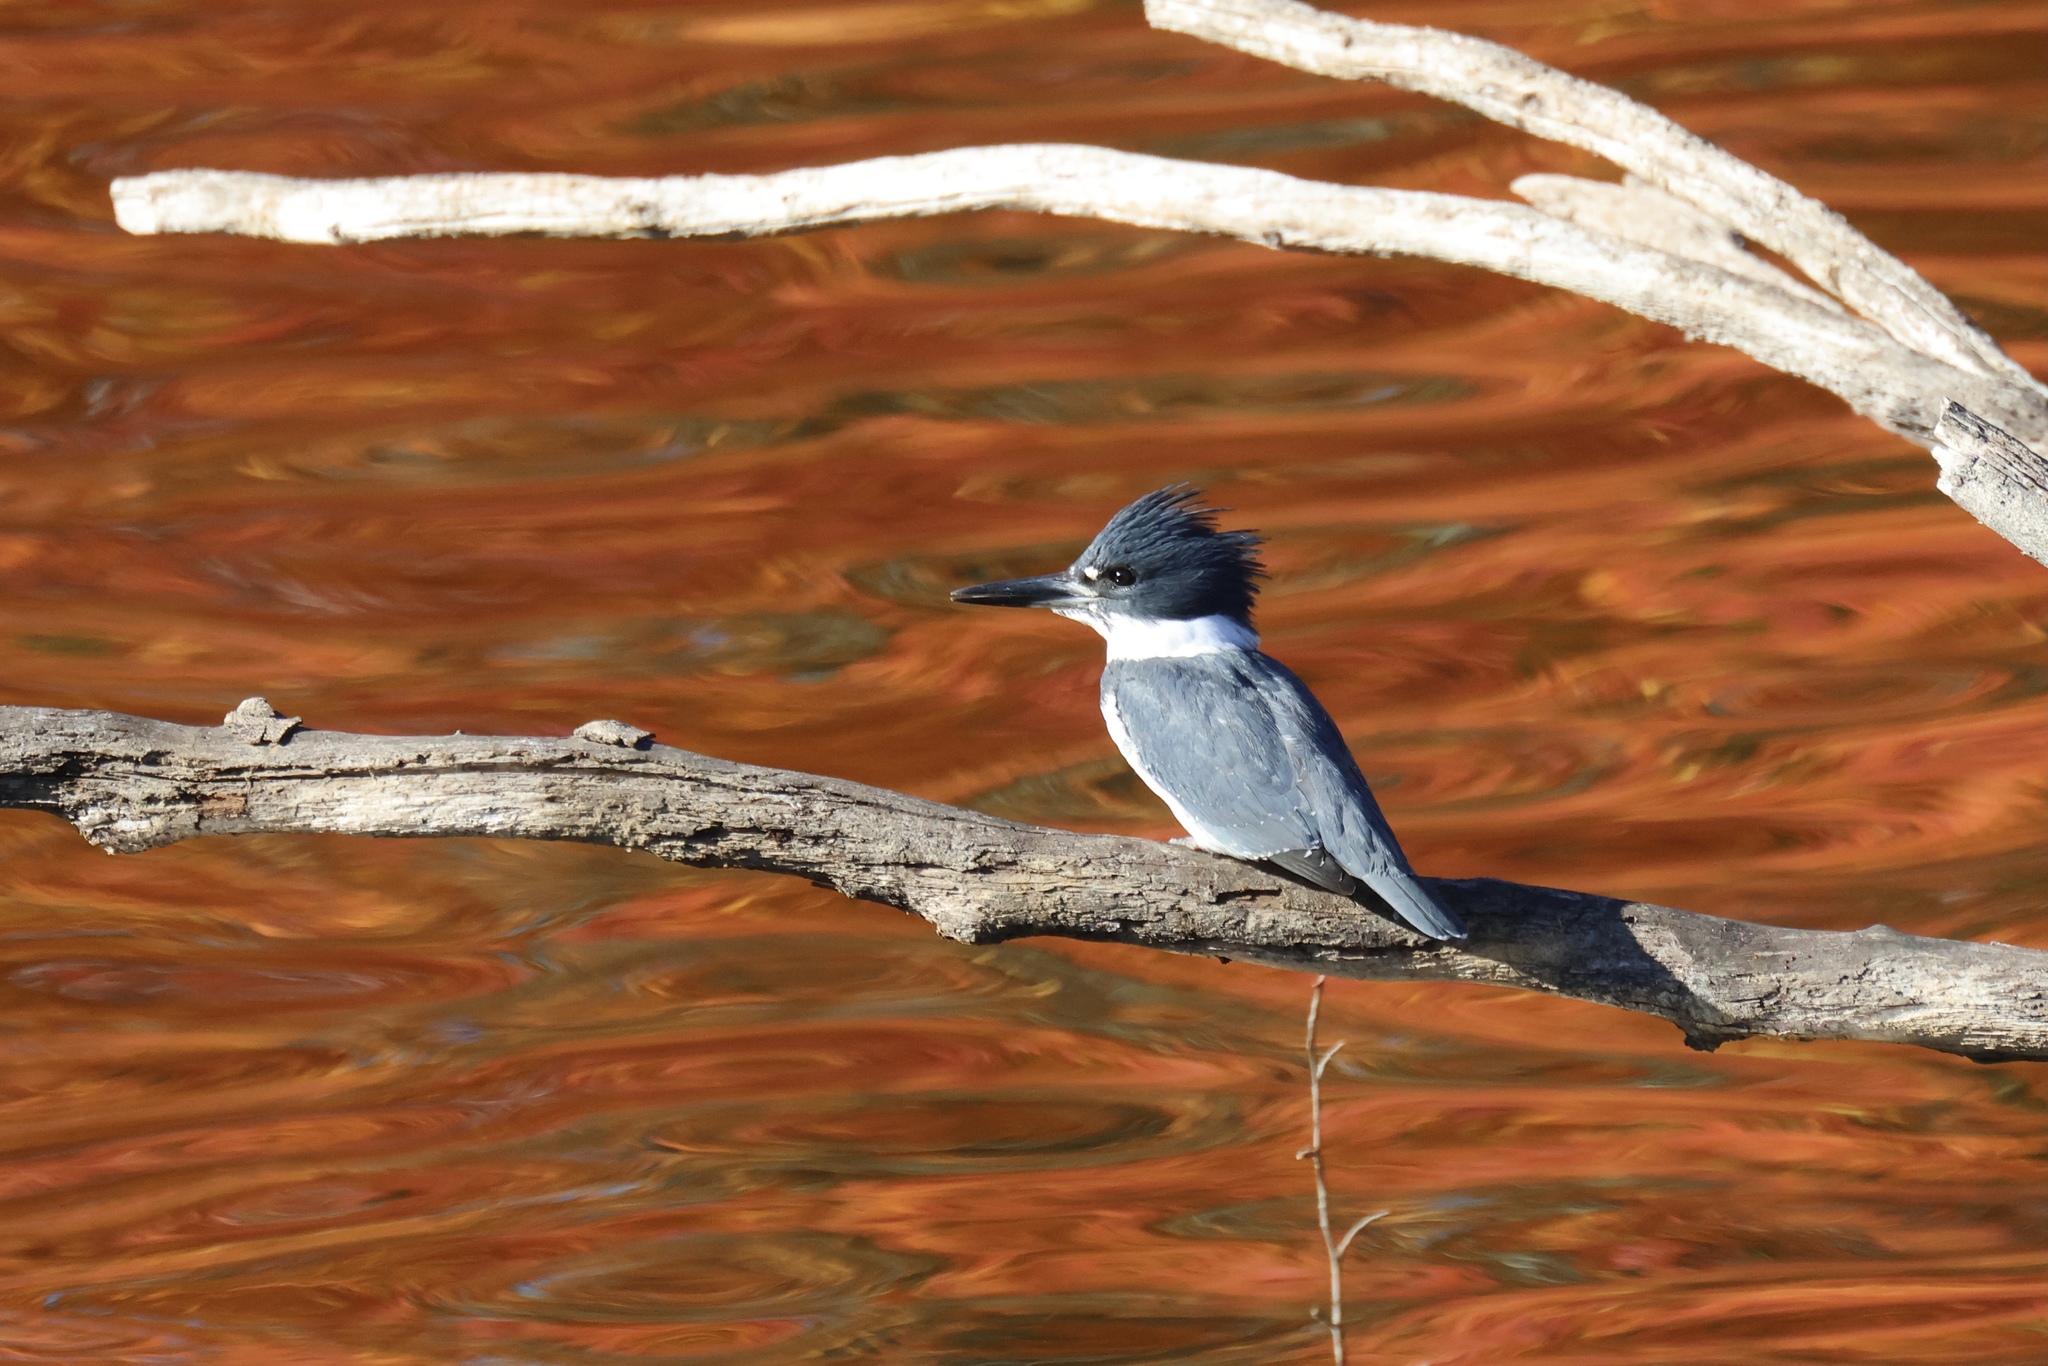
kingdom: Animalia
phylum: Chordata
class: Aves
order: Coraciiformes
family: Alcedinidae
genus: Megaceryle
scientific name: Megaceryle alcyon
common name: Belted kingfisher
